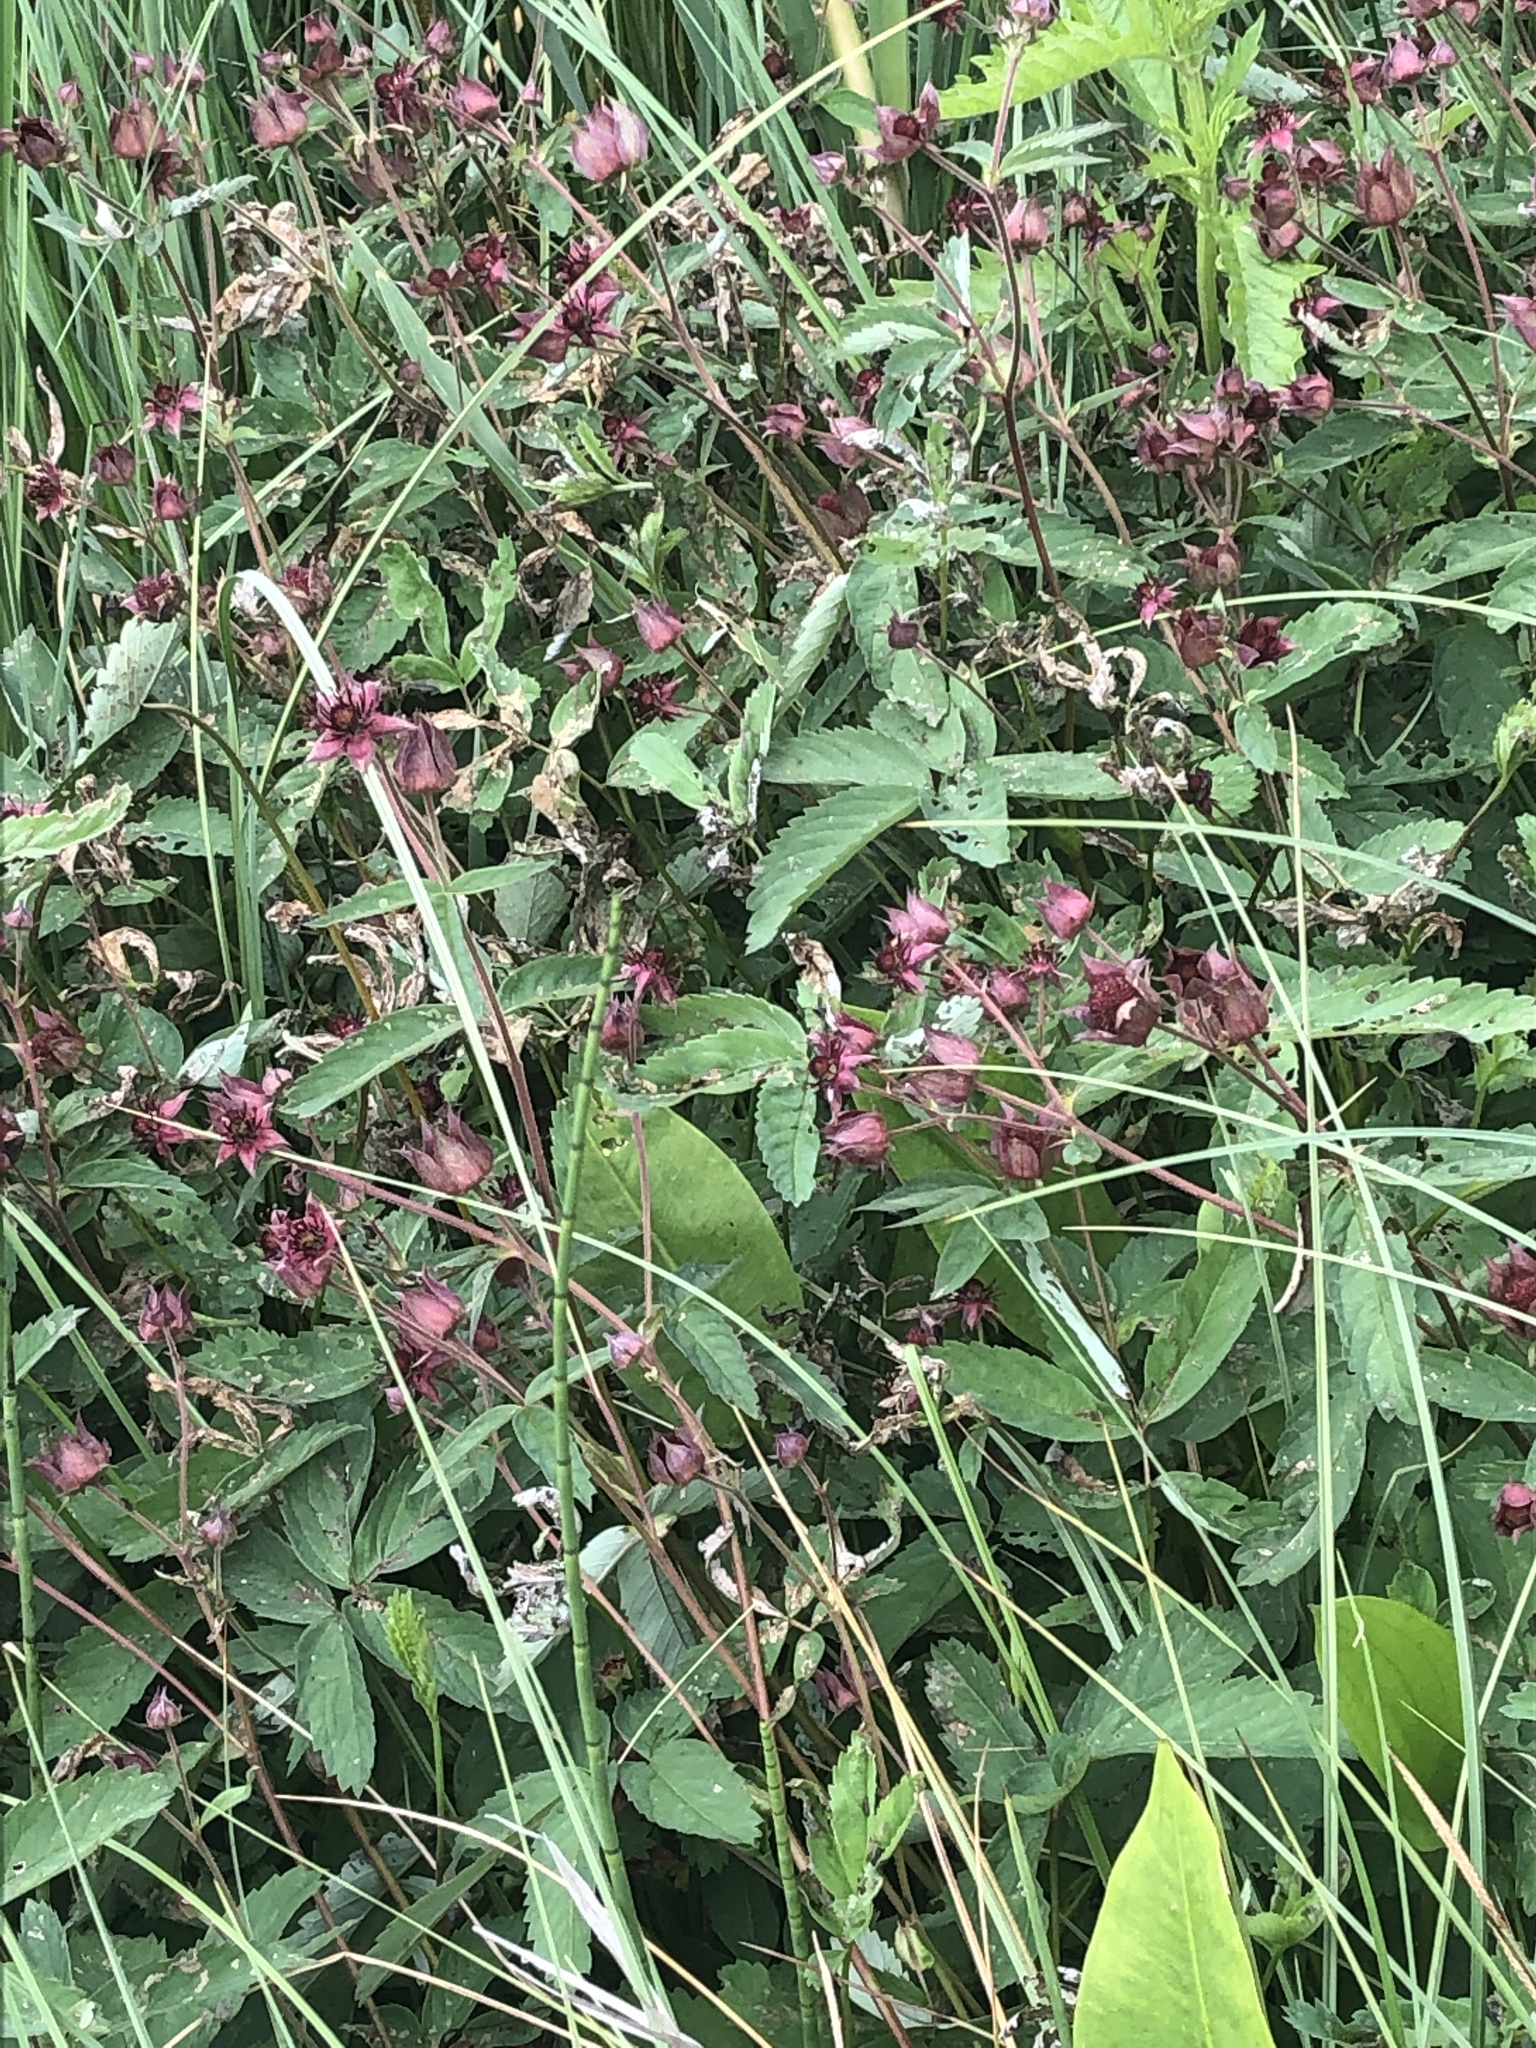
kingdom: Plantae
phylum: Tracheophyta
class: Magnoliopsida
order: Rosales
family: Rosaceae
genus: Comarum
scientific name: Comarum palustre
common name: Marsh cinquefoil
